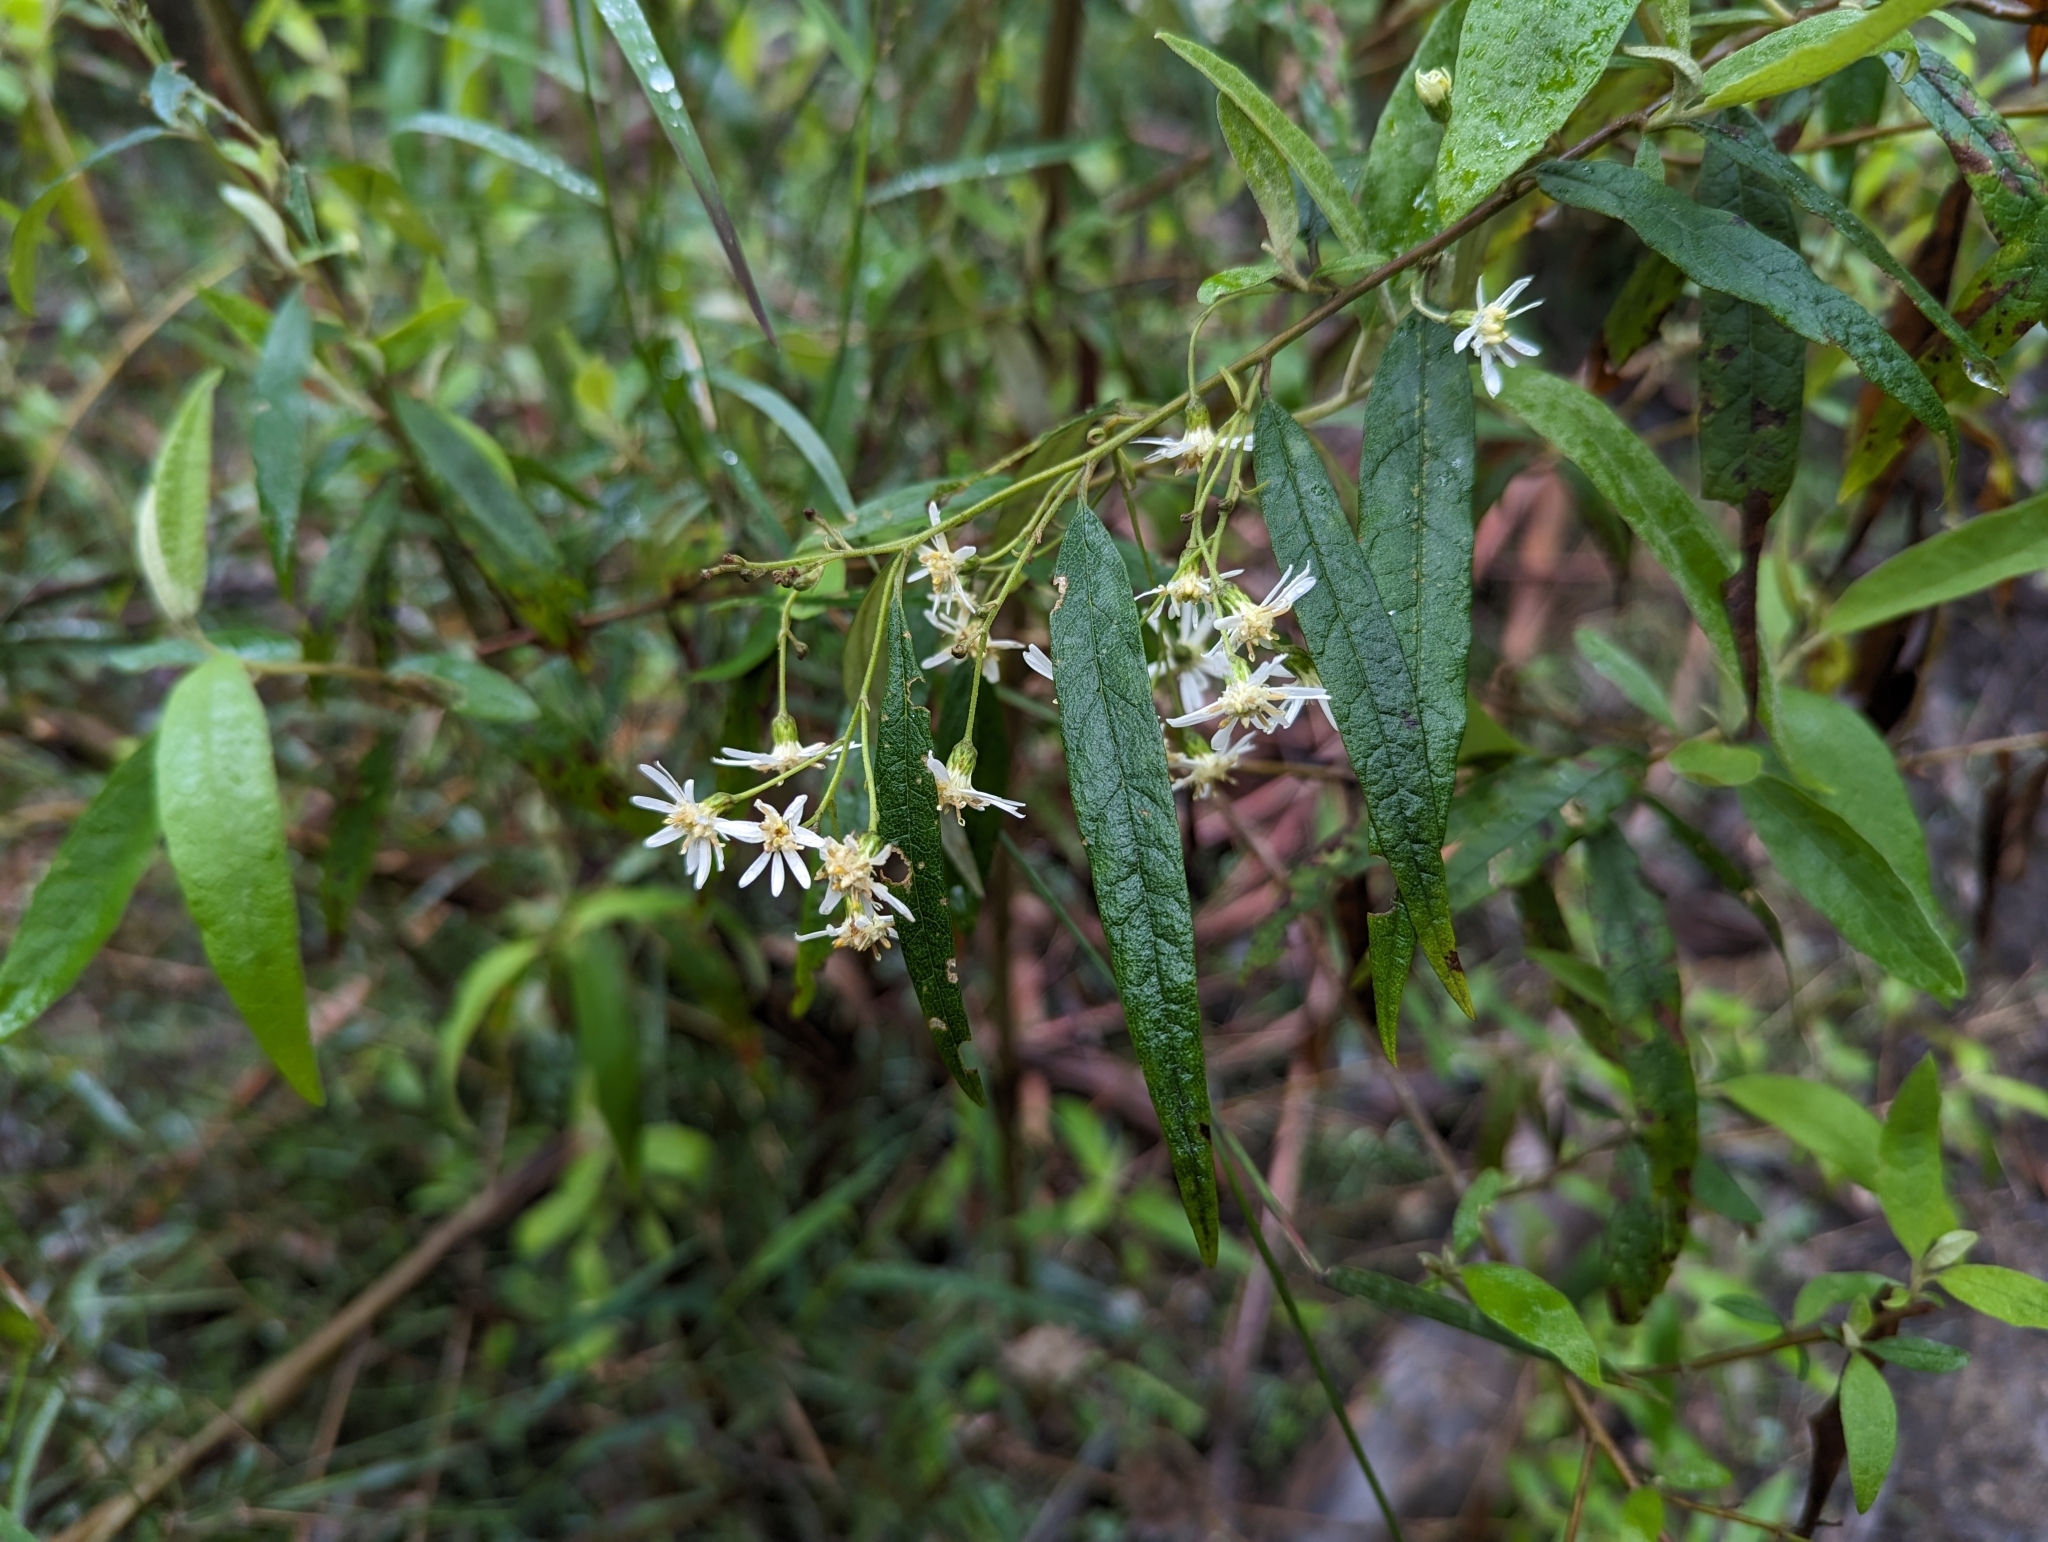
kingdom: Plantae
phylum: Tracheophyta
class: Magnoliopsida
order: Asterales
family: Asteraceae
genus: Olearia
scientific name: Olearia lirata
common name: Dusty daisybush
